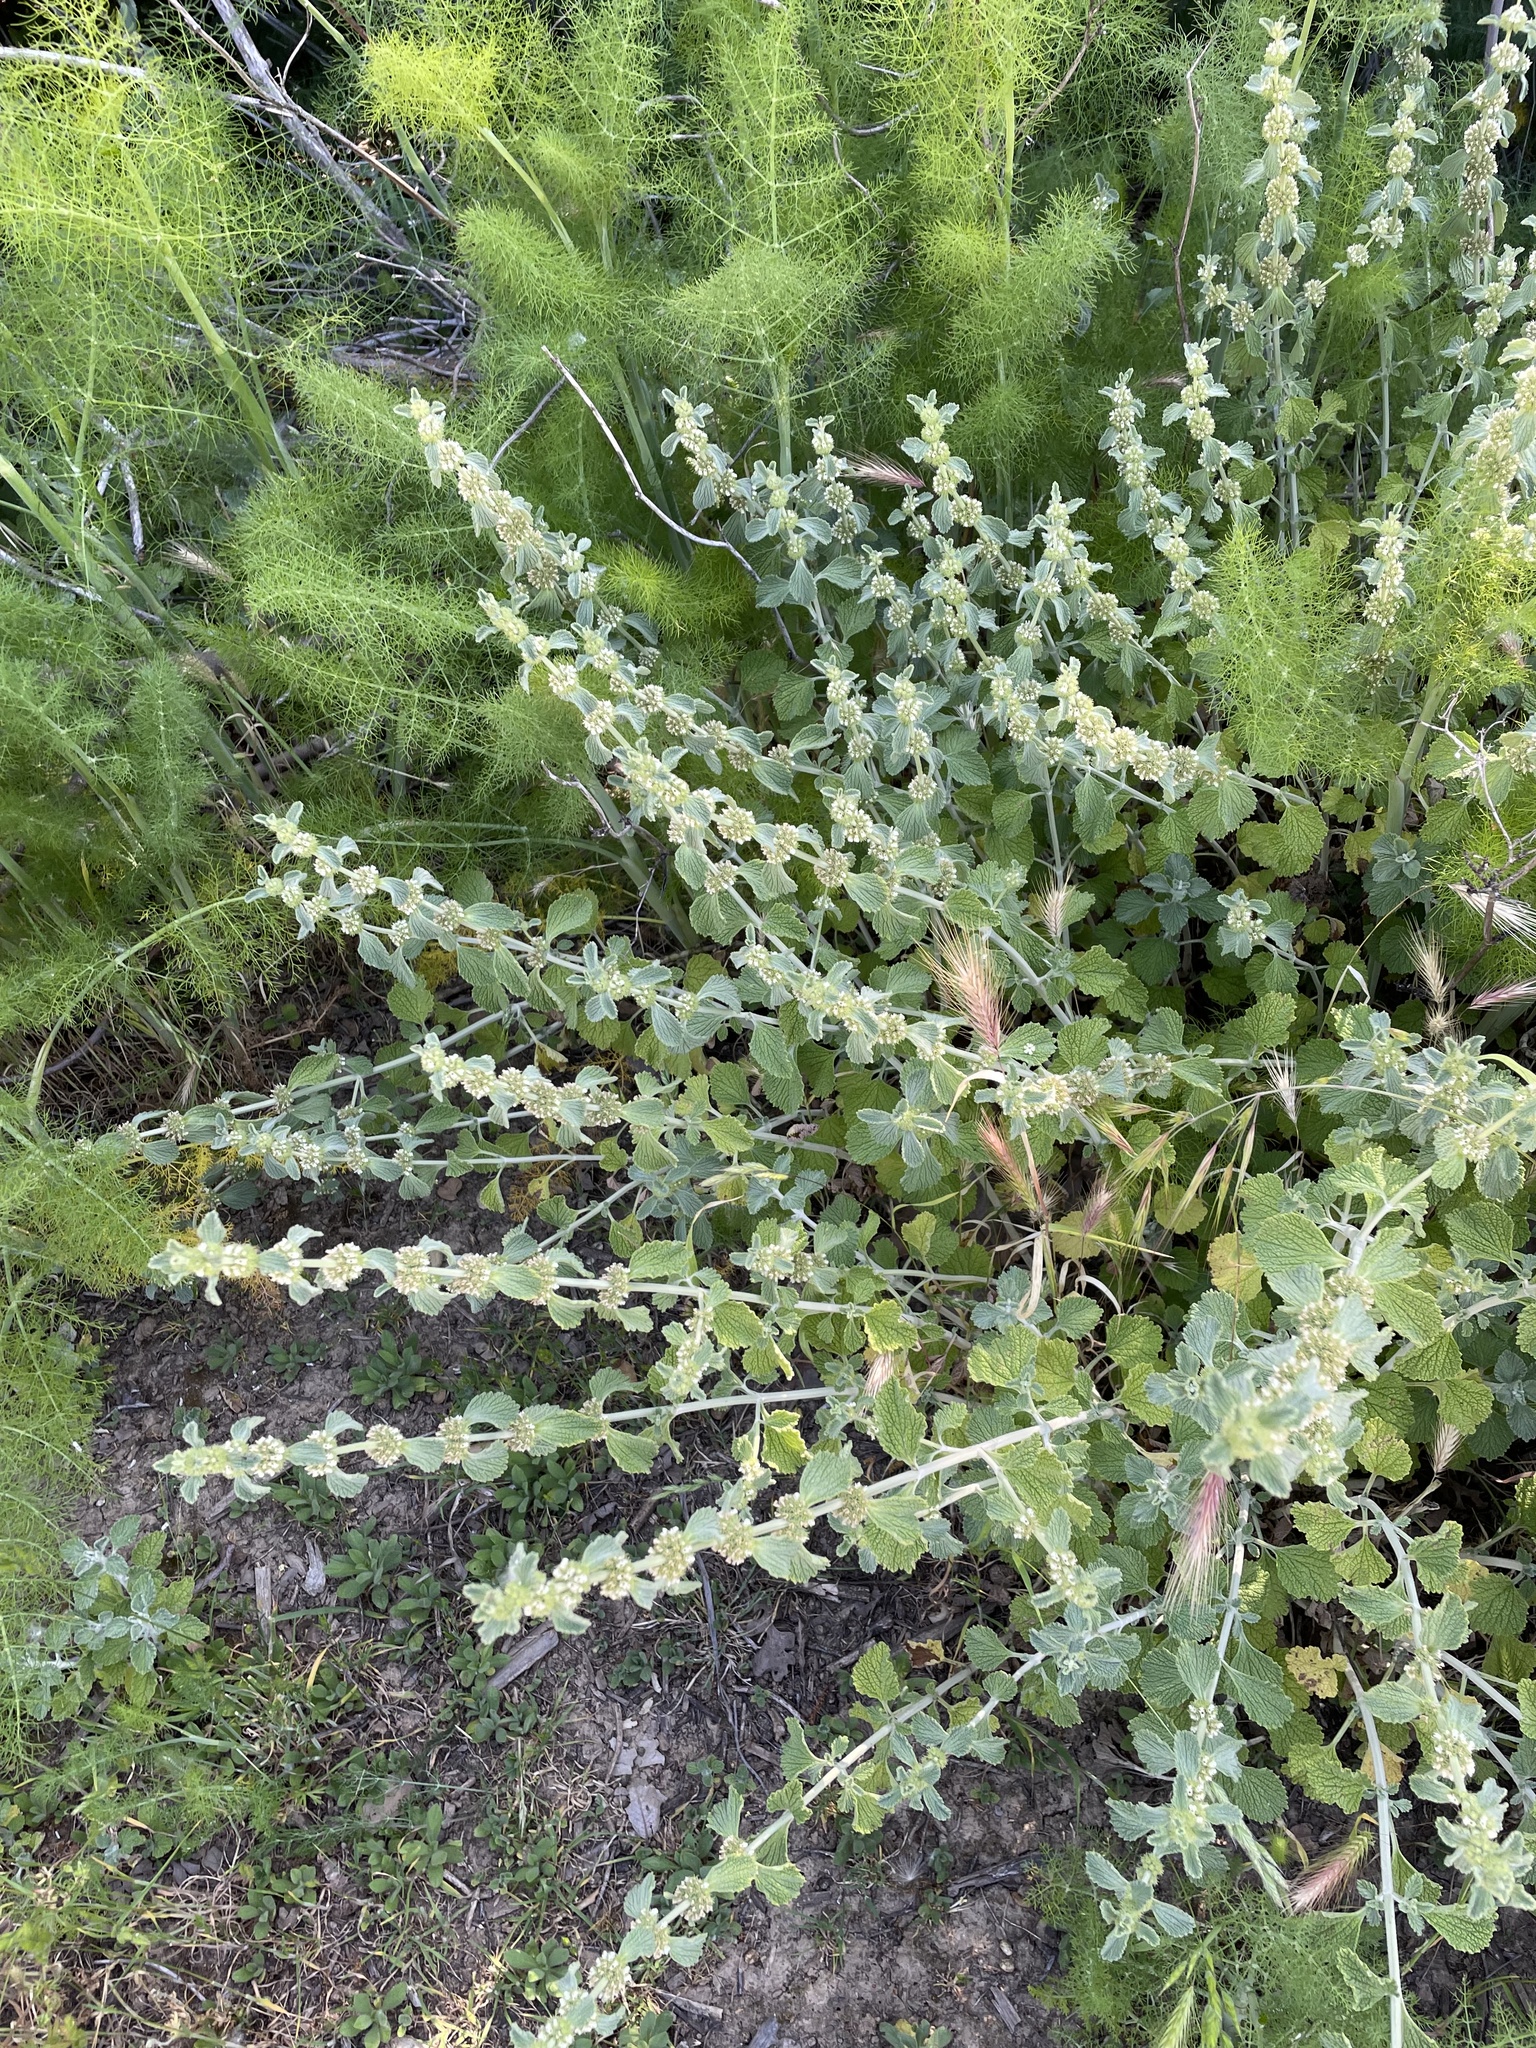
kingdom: Plantae
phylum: Tracheophyta
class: Magnoliopsida
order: Lamiales
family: Lamiaceae
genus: Marrubium
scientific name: Marrubium vulgare
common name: Horehound
